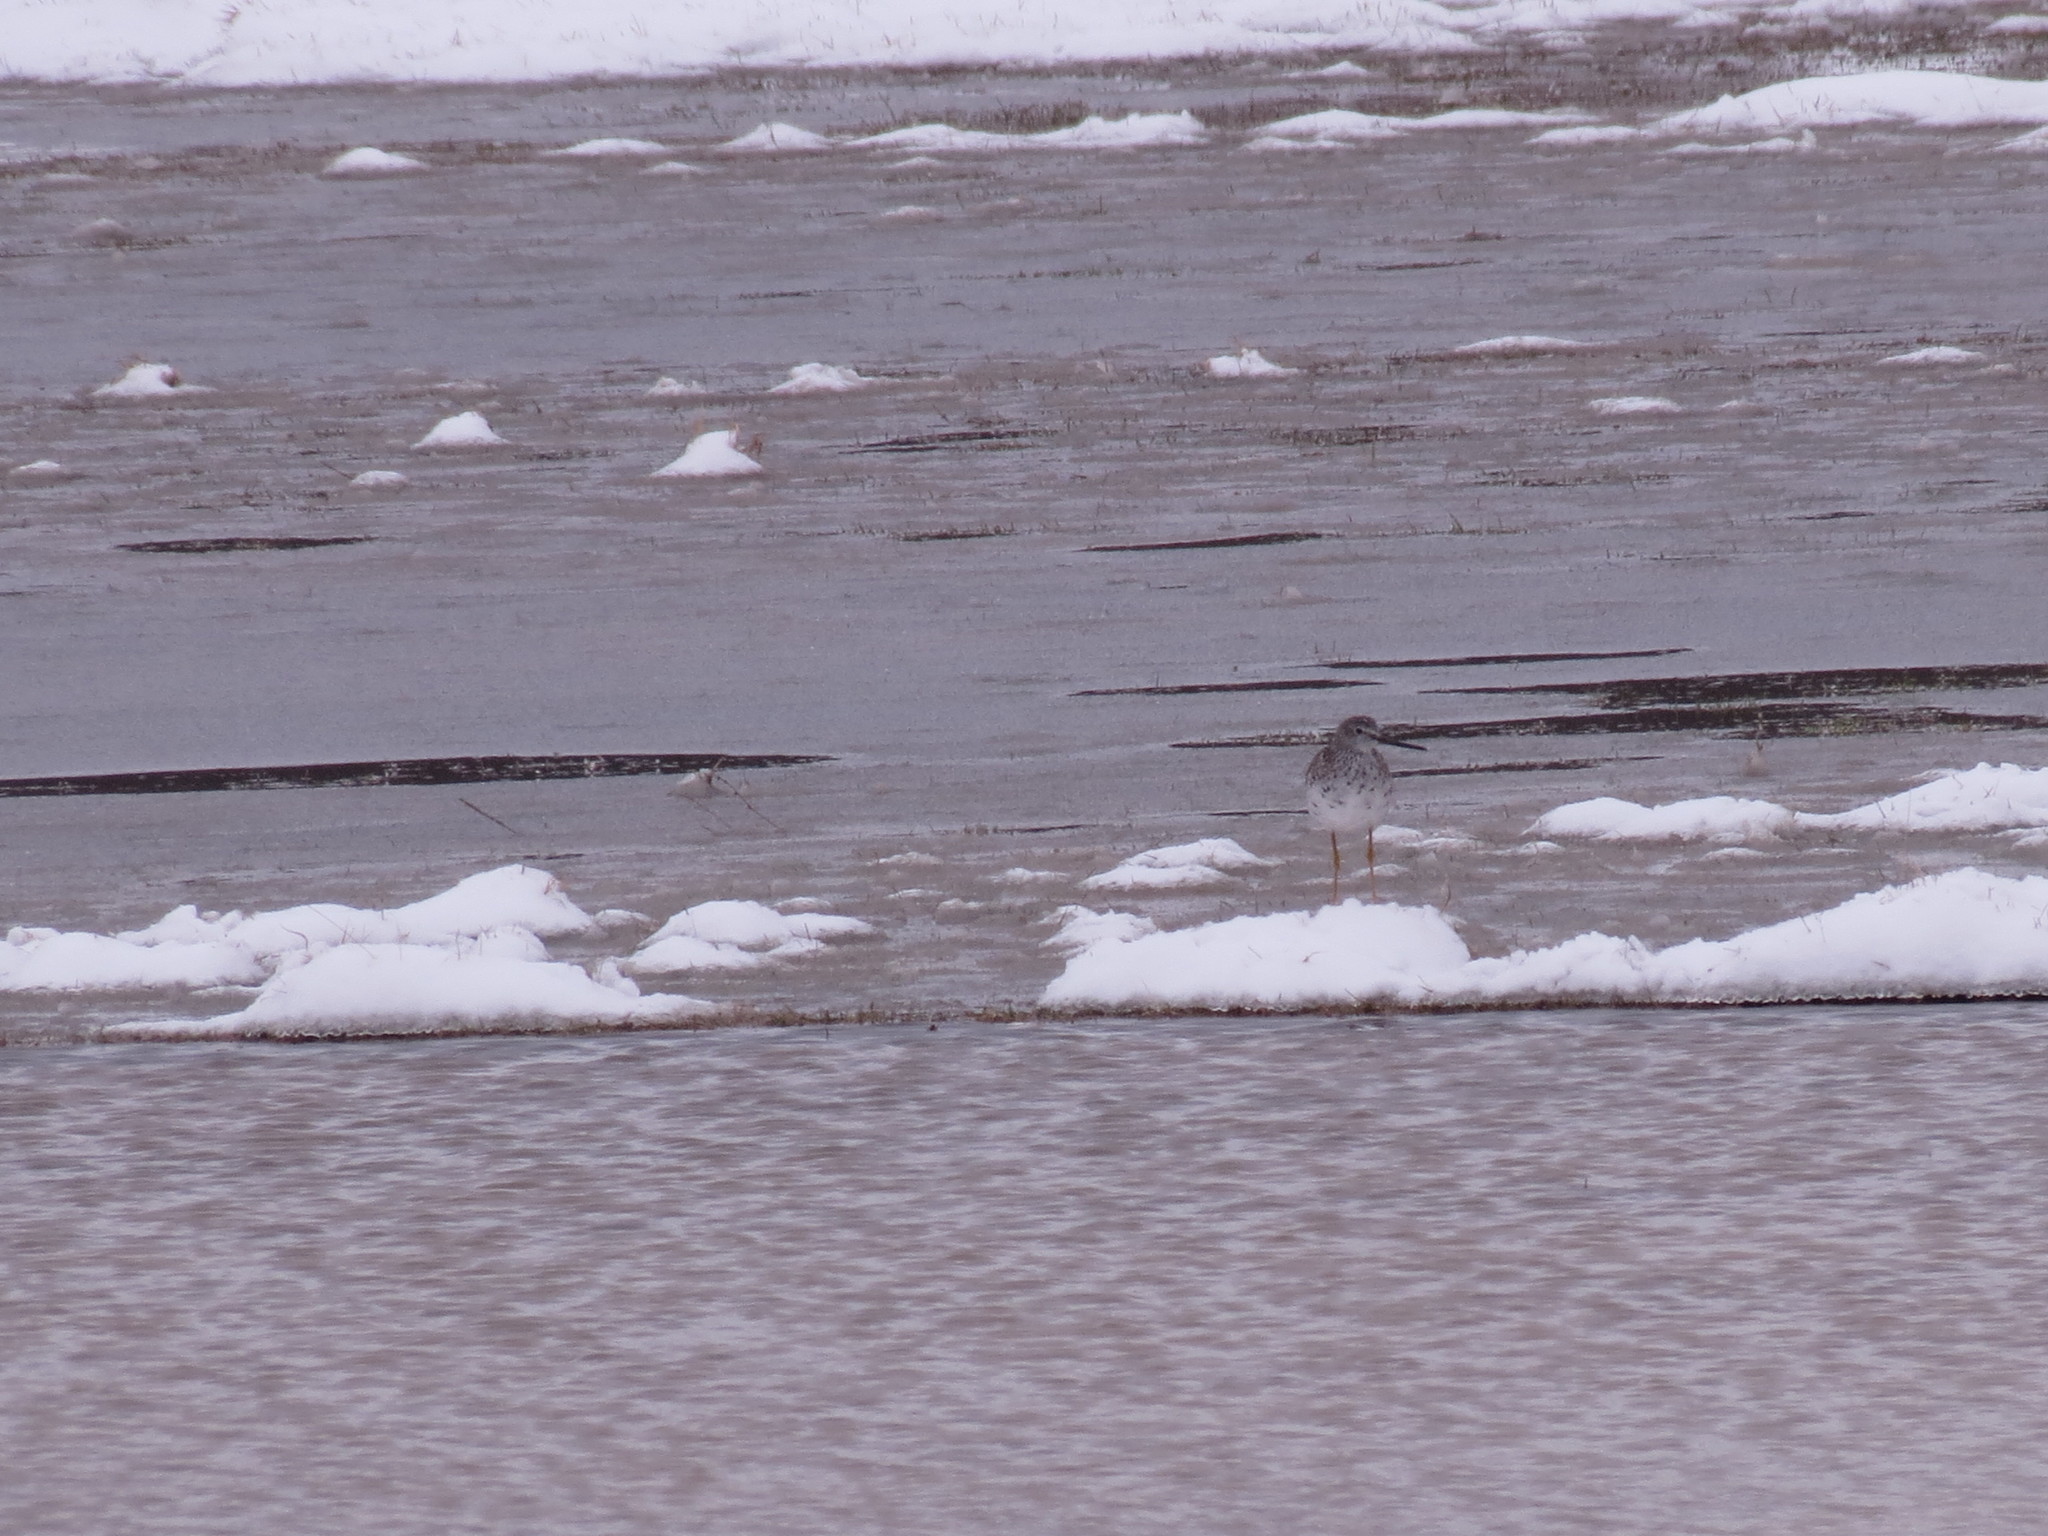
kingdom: Animalia
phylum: Chordata
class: Aves
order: Charadriiformes
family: Scolopacidae
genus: Tringa
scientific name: Tringa melanoleuca
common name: Greater yellowlegs
